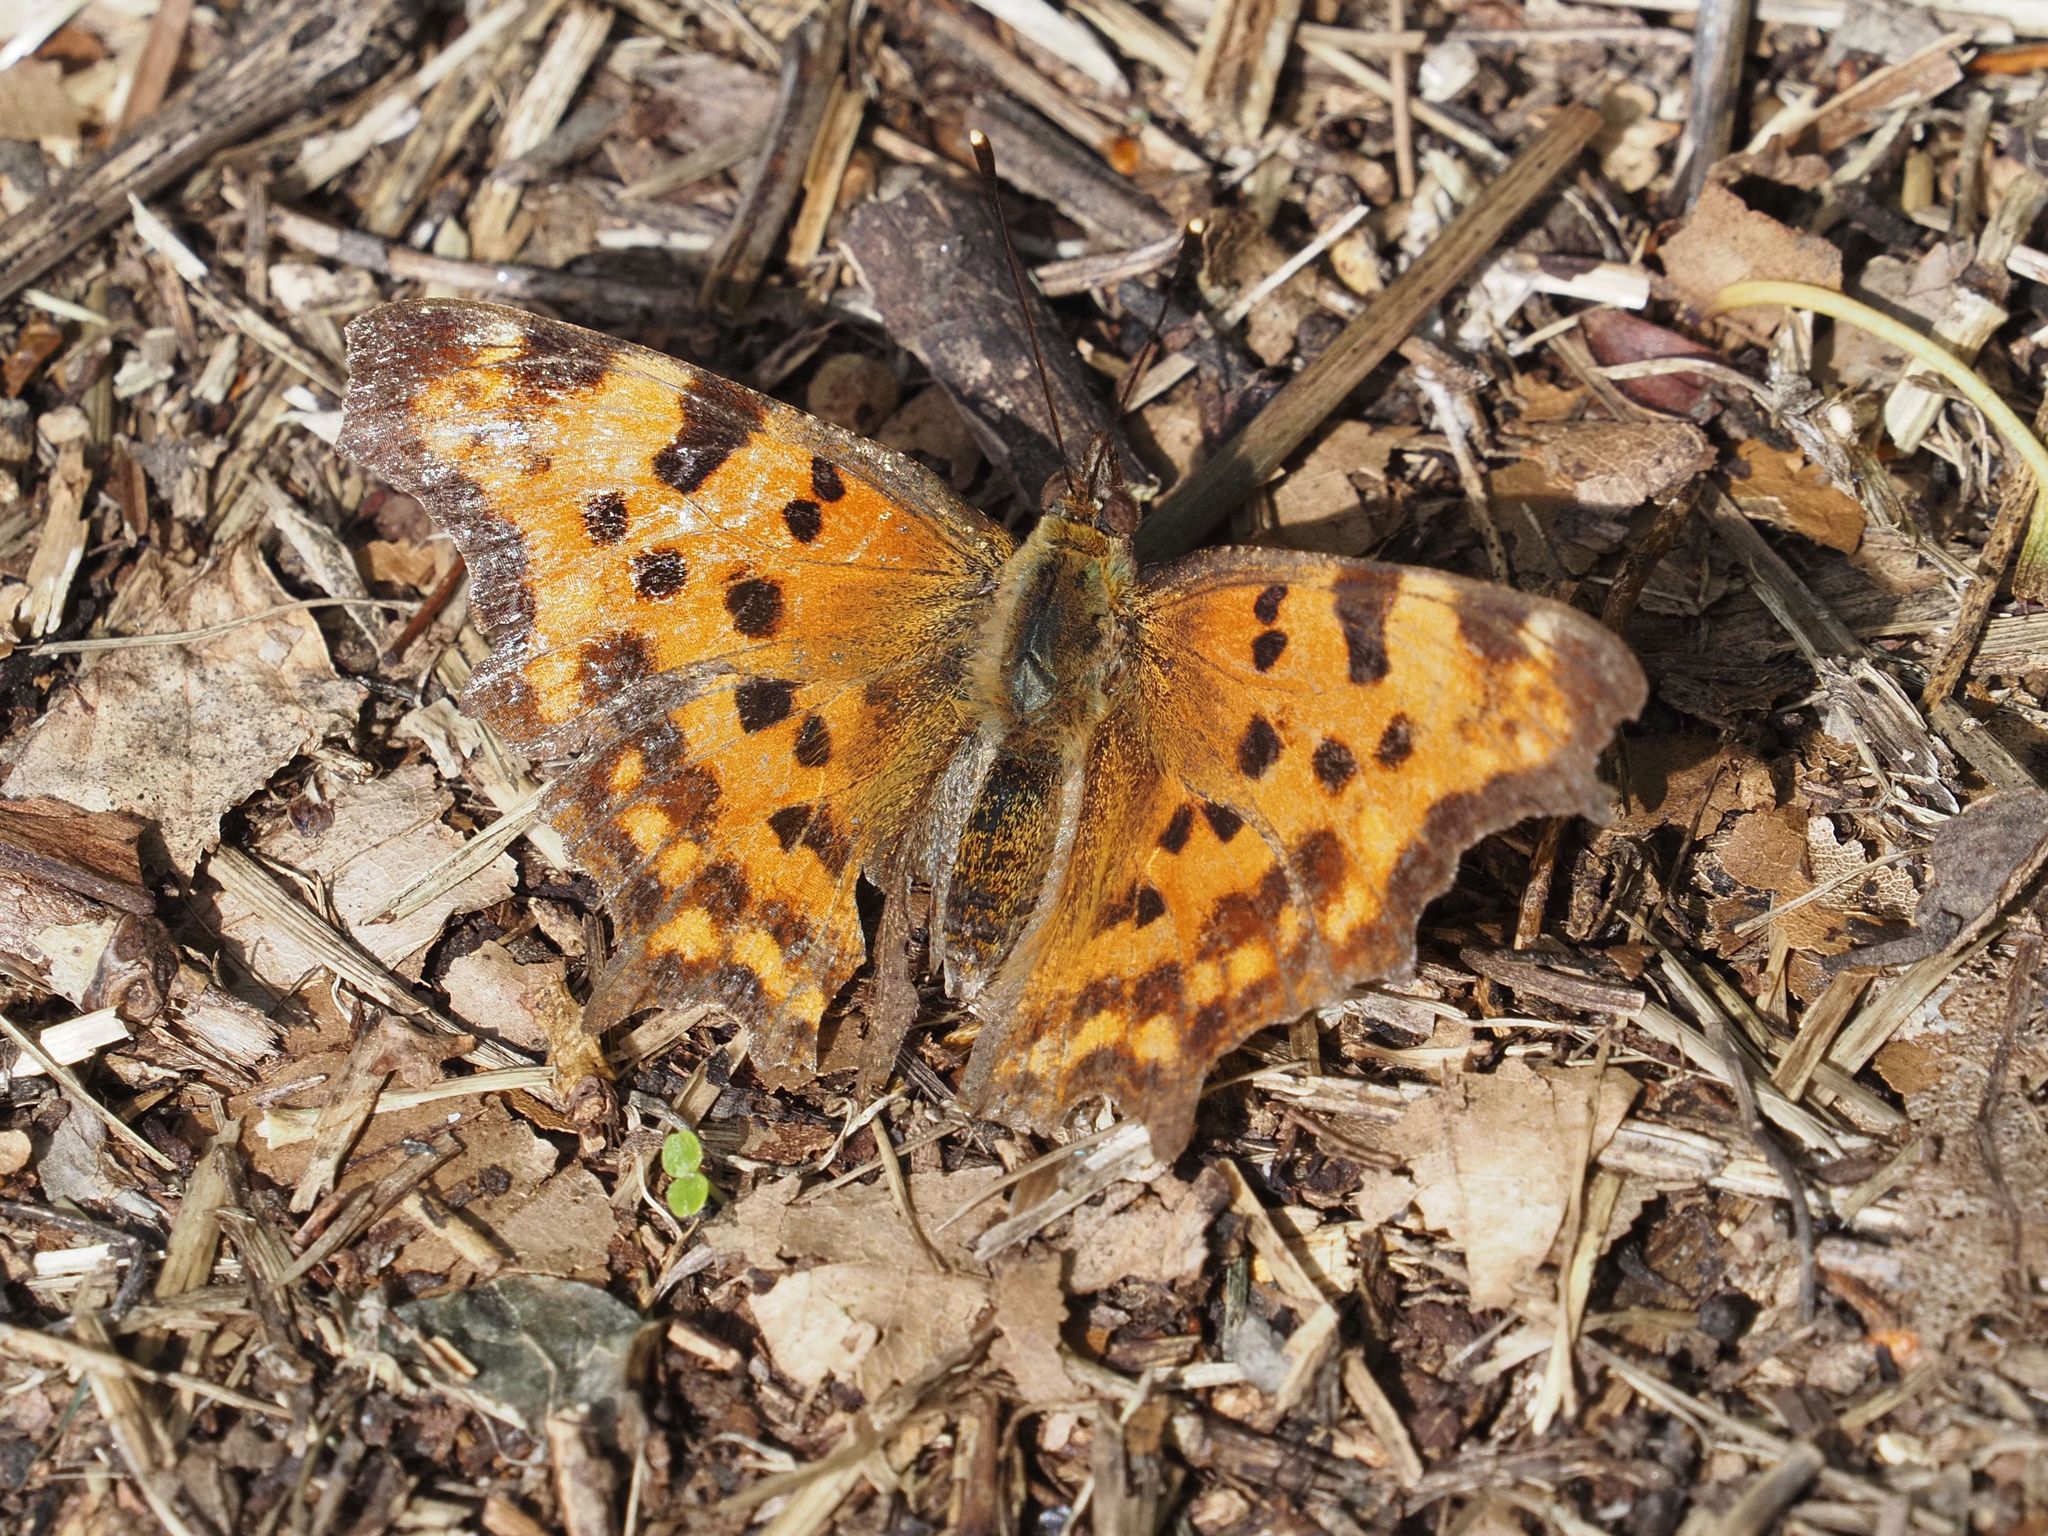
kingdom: Animalia
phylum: Arthropoda
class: Insecta
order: Lepidoptera
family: Nymphalidae
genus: Polygonia
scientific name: Polygonia c-album
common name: Comma
